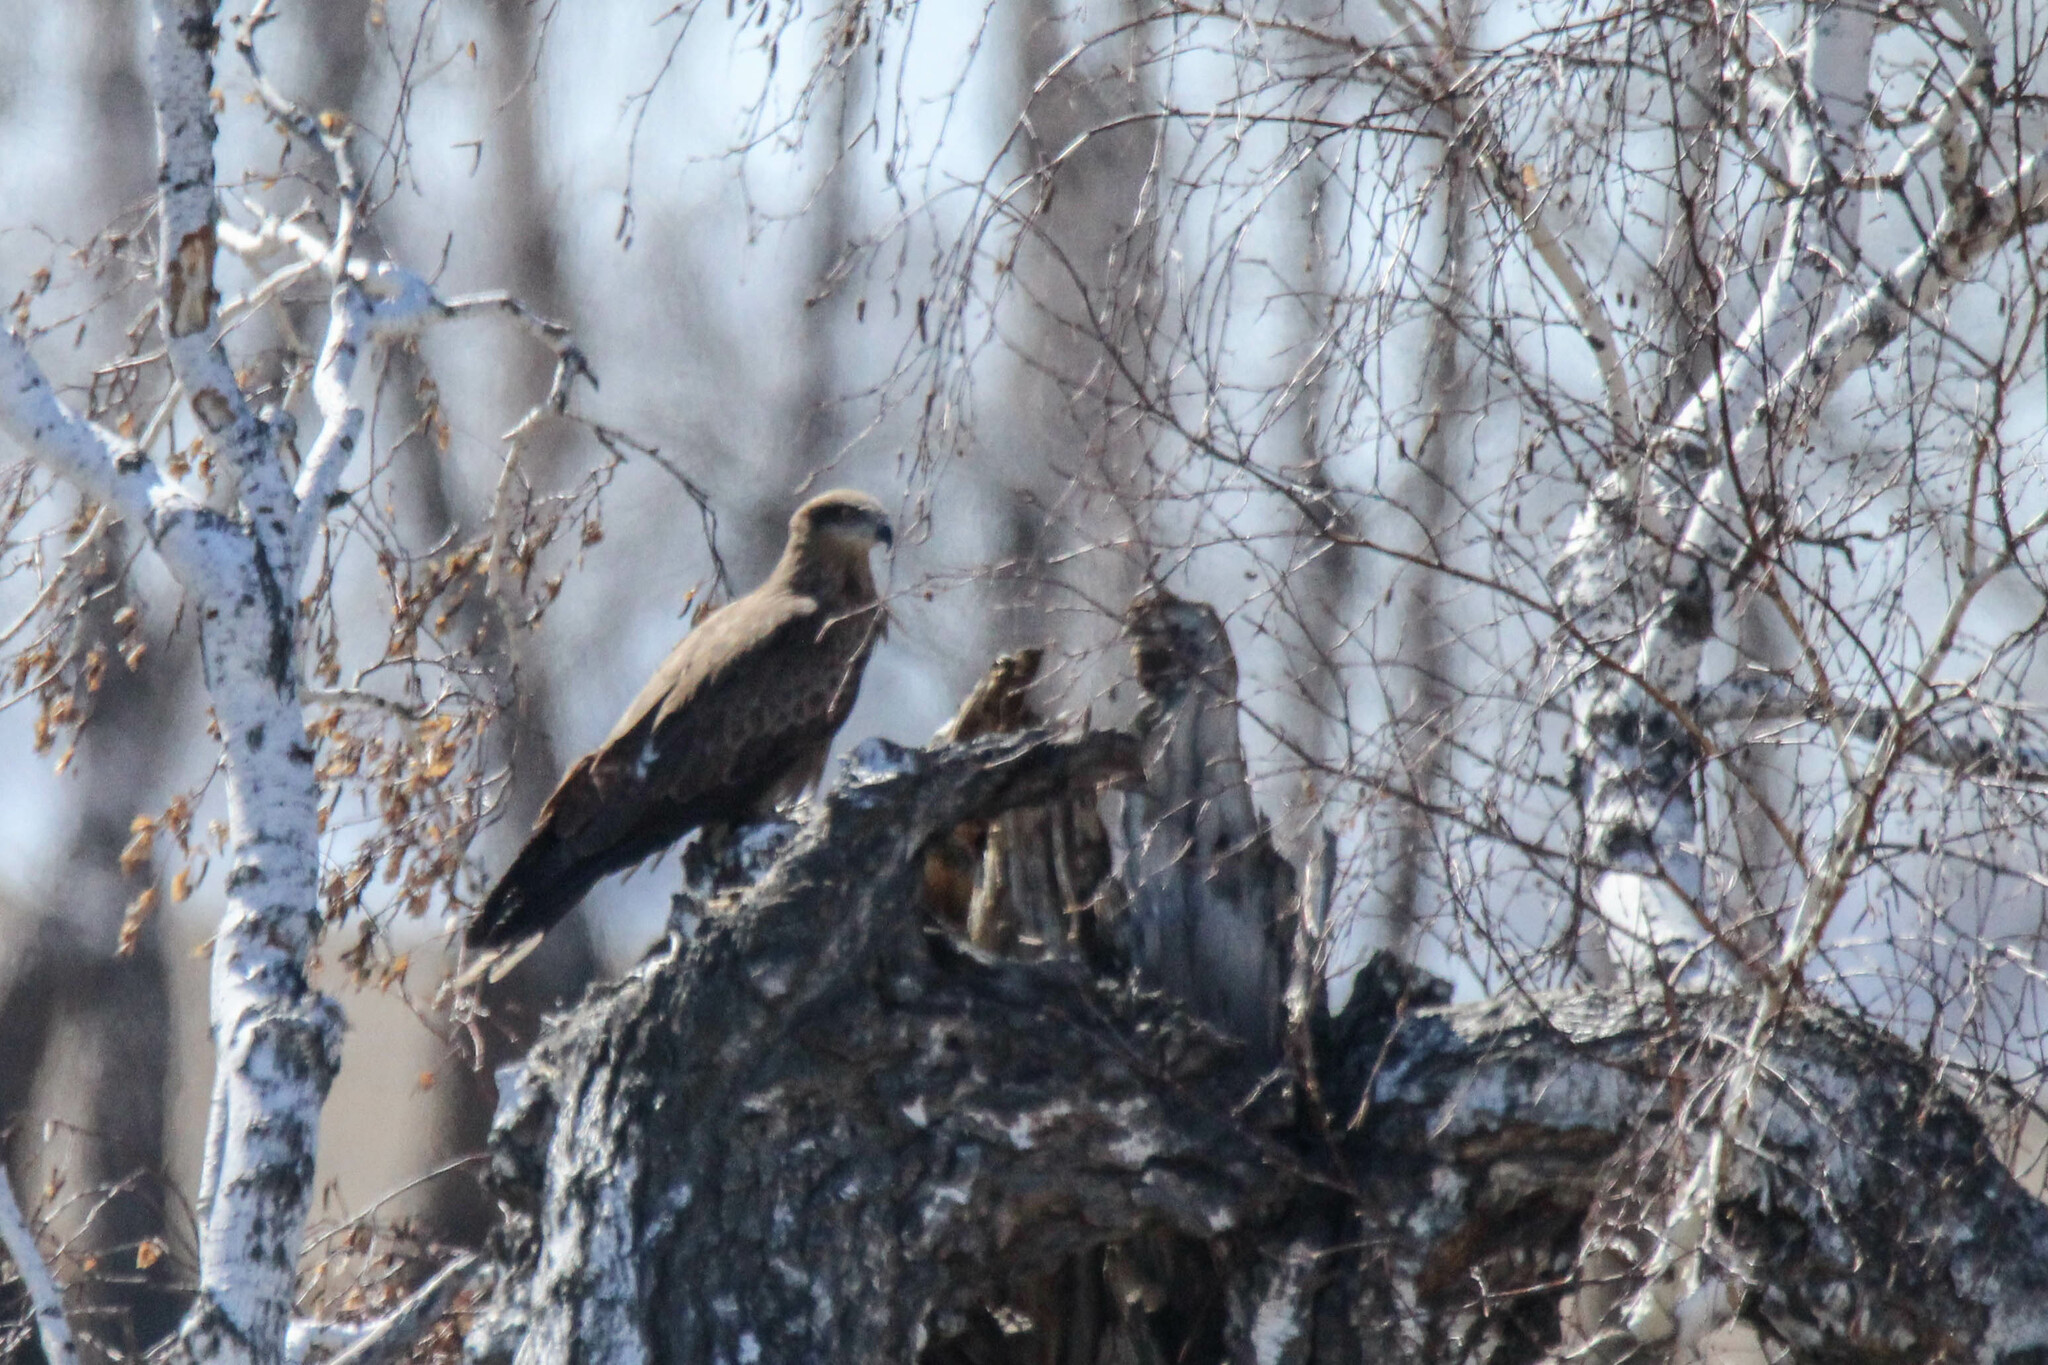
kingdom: Animalia
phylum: Chordata
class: Aves
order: Accipitriformes
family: Accipitridae
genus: Milvus
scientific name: Milvus migrans
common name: Black kite
